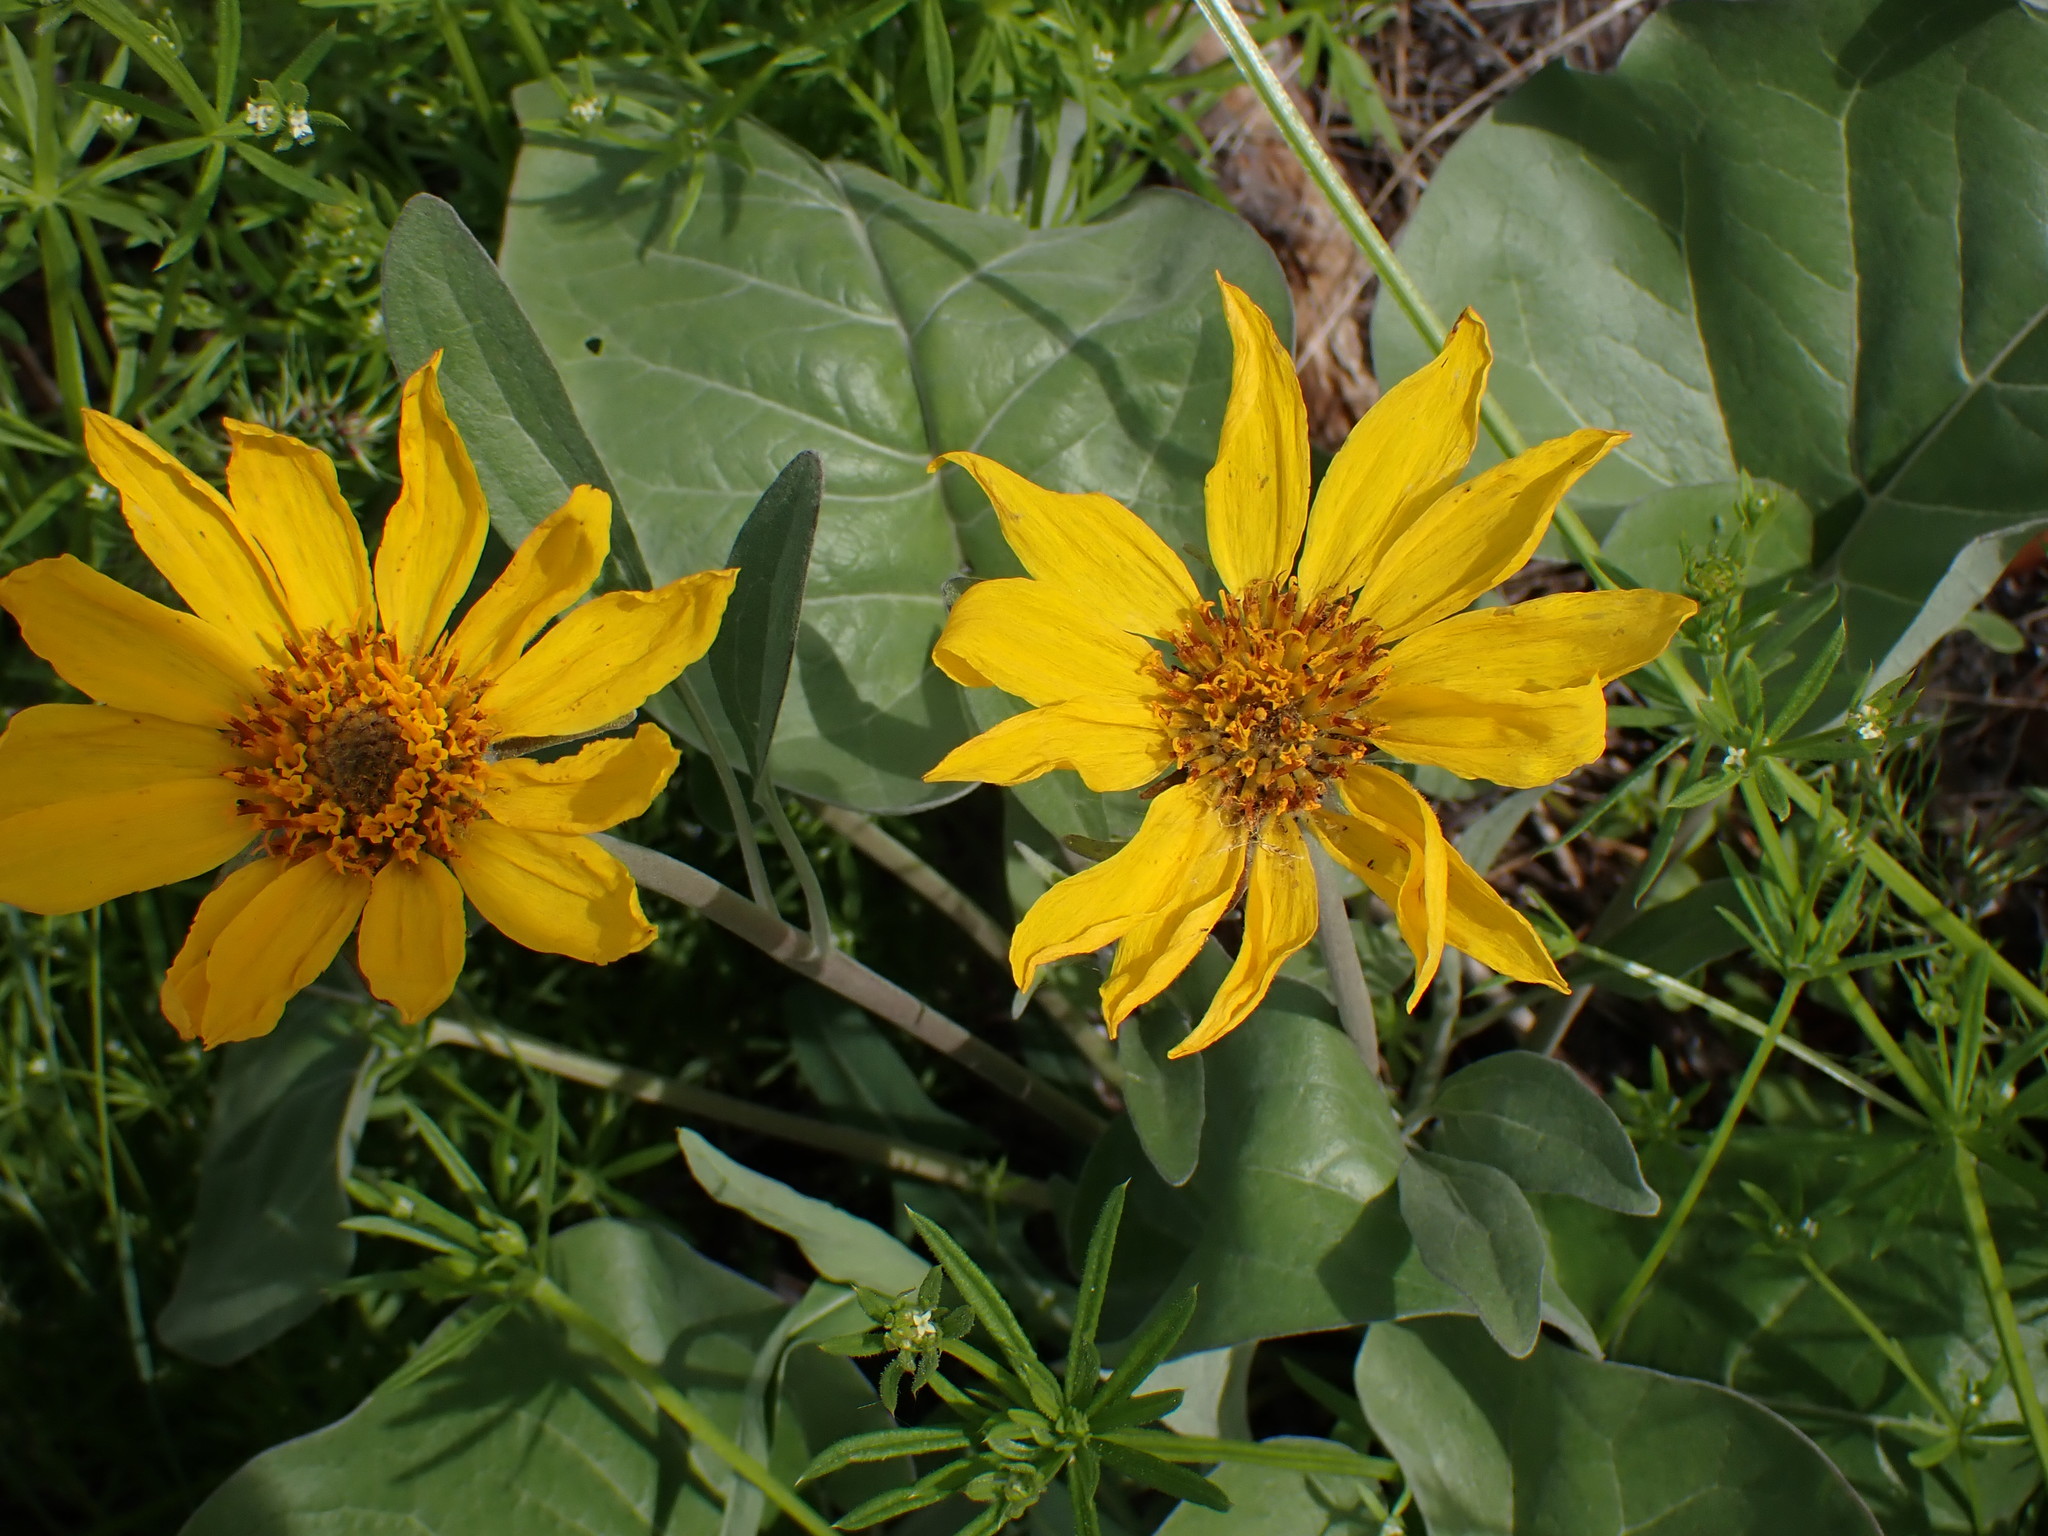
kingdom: Plantae
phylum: Tracheophyta
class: Magnoliopsida
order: Asterales
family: Asteraceae
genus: Wyethia
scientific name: Wyethia sagittata
